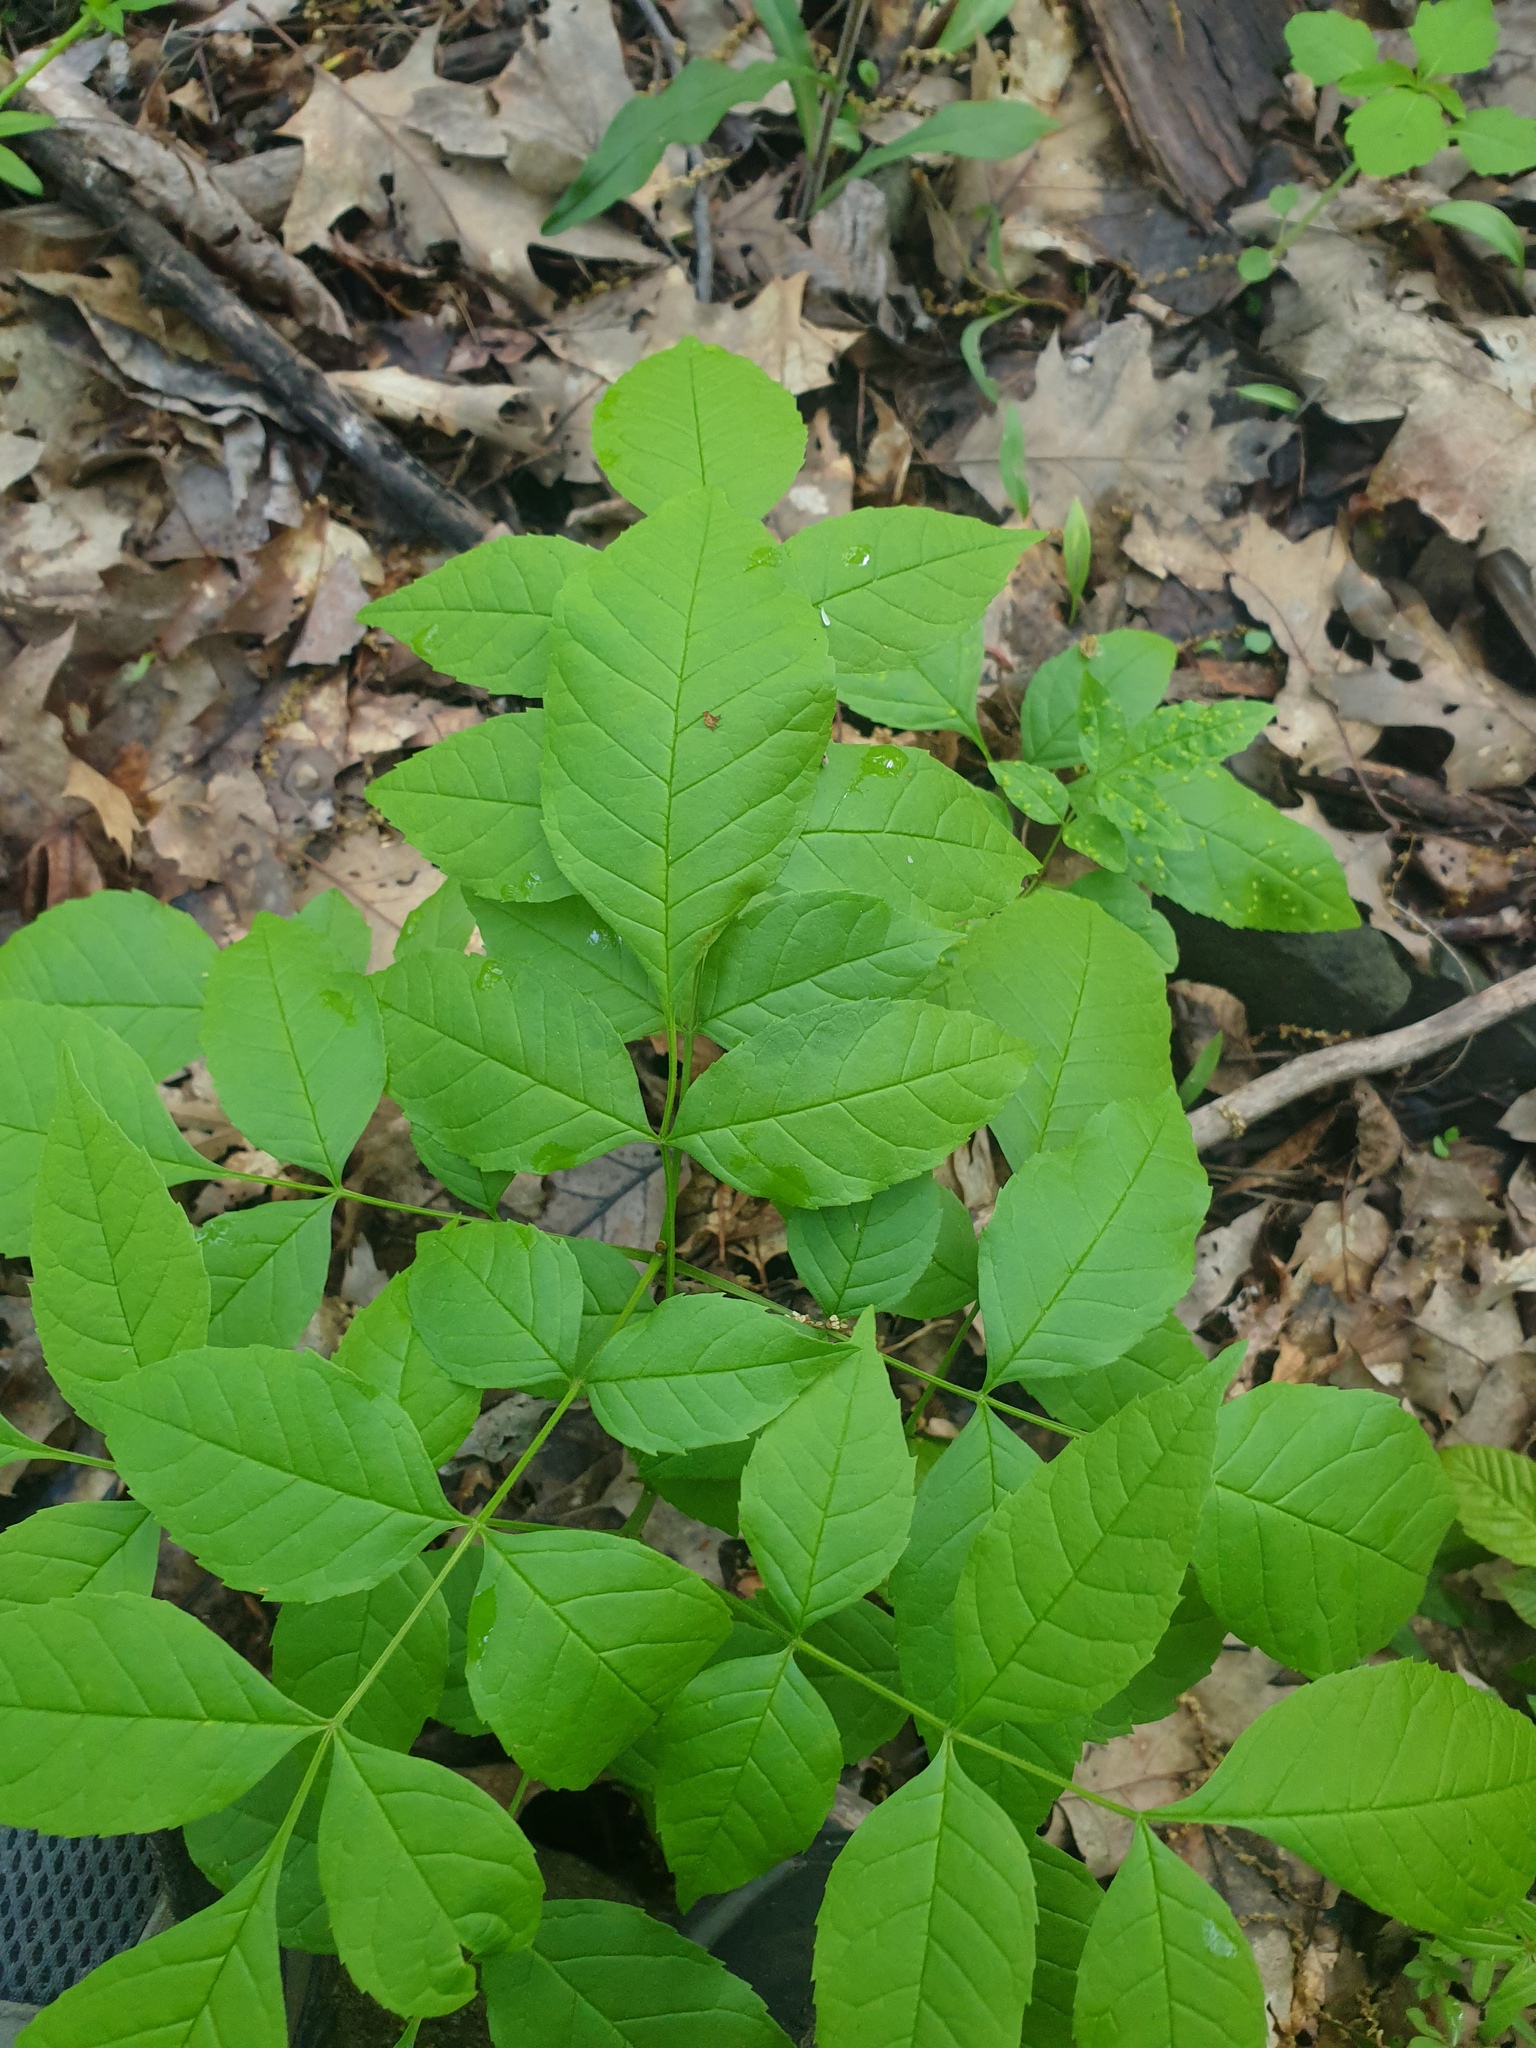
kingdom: Plantae
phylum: Tracheophyta
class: Magnoliopsida
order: Lamiales
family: Oleaceae
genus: Fraxinus
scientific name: Fraxinus pennsylvanica
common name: Green ash
